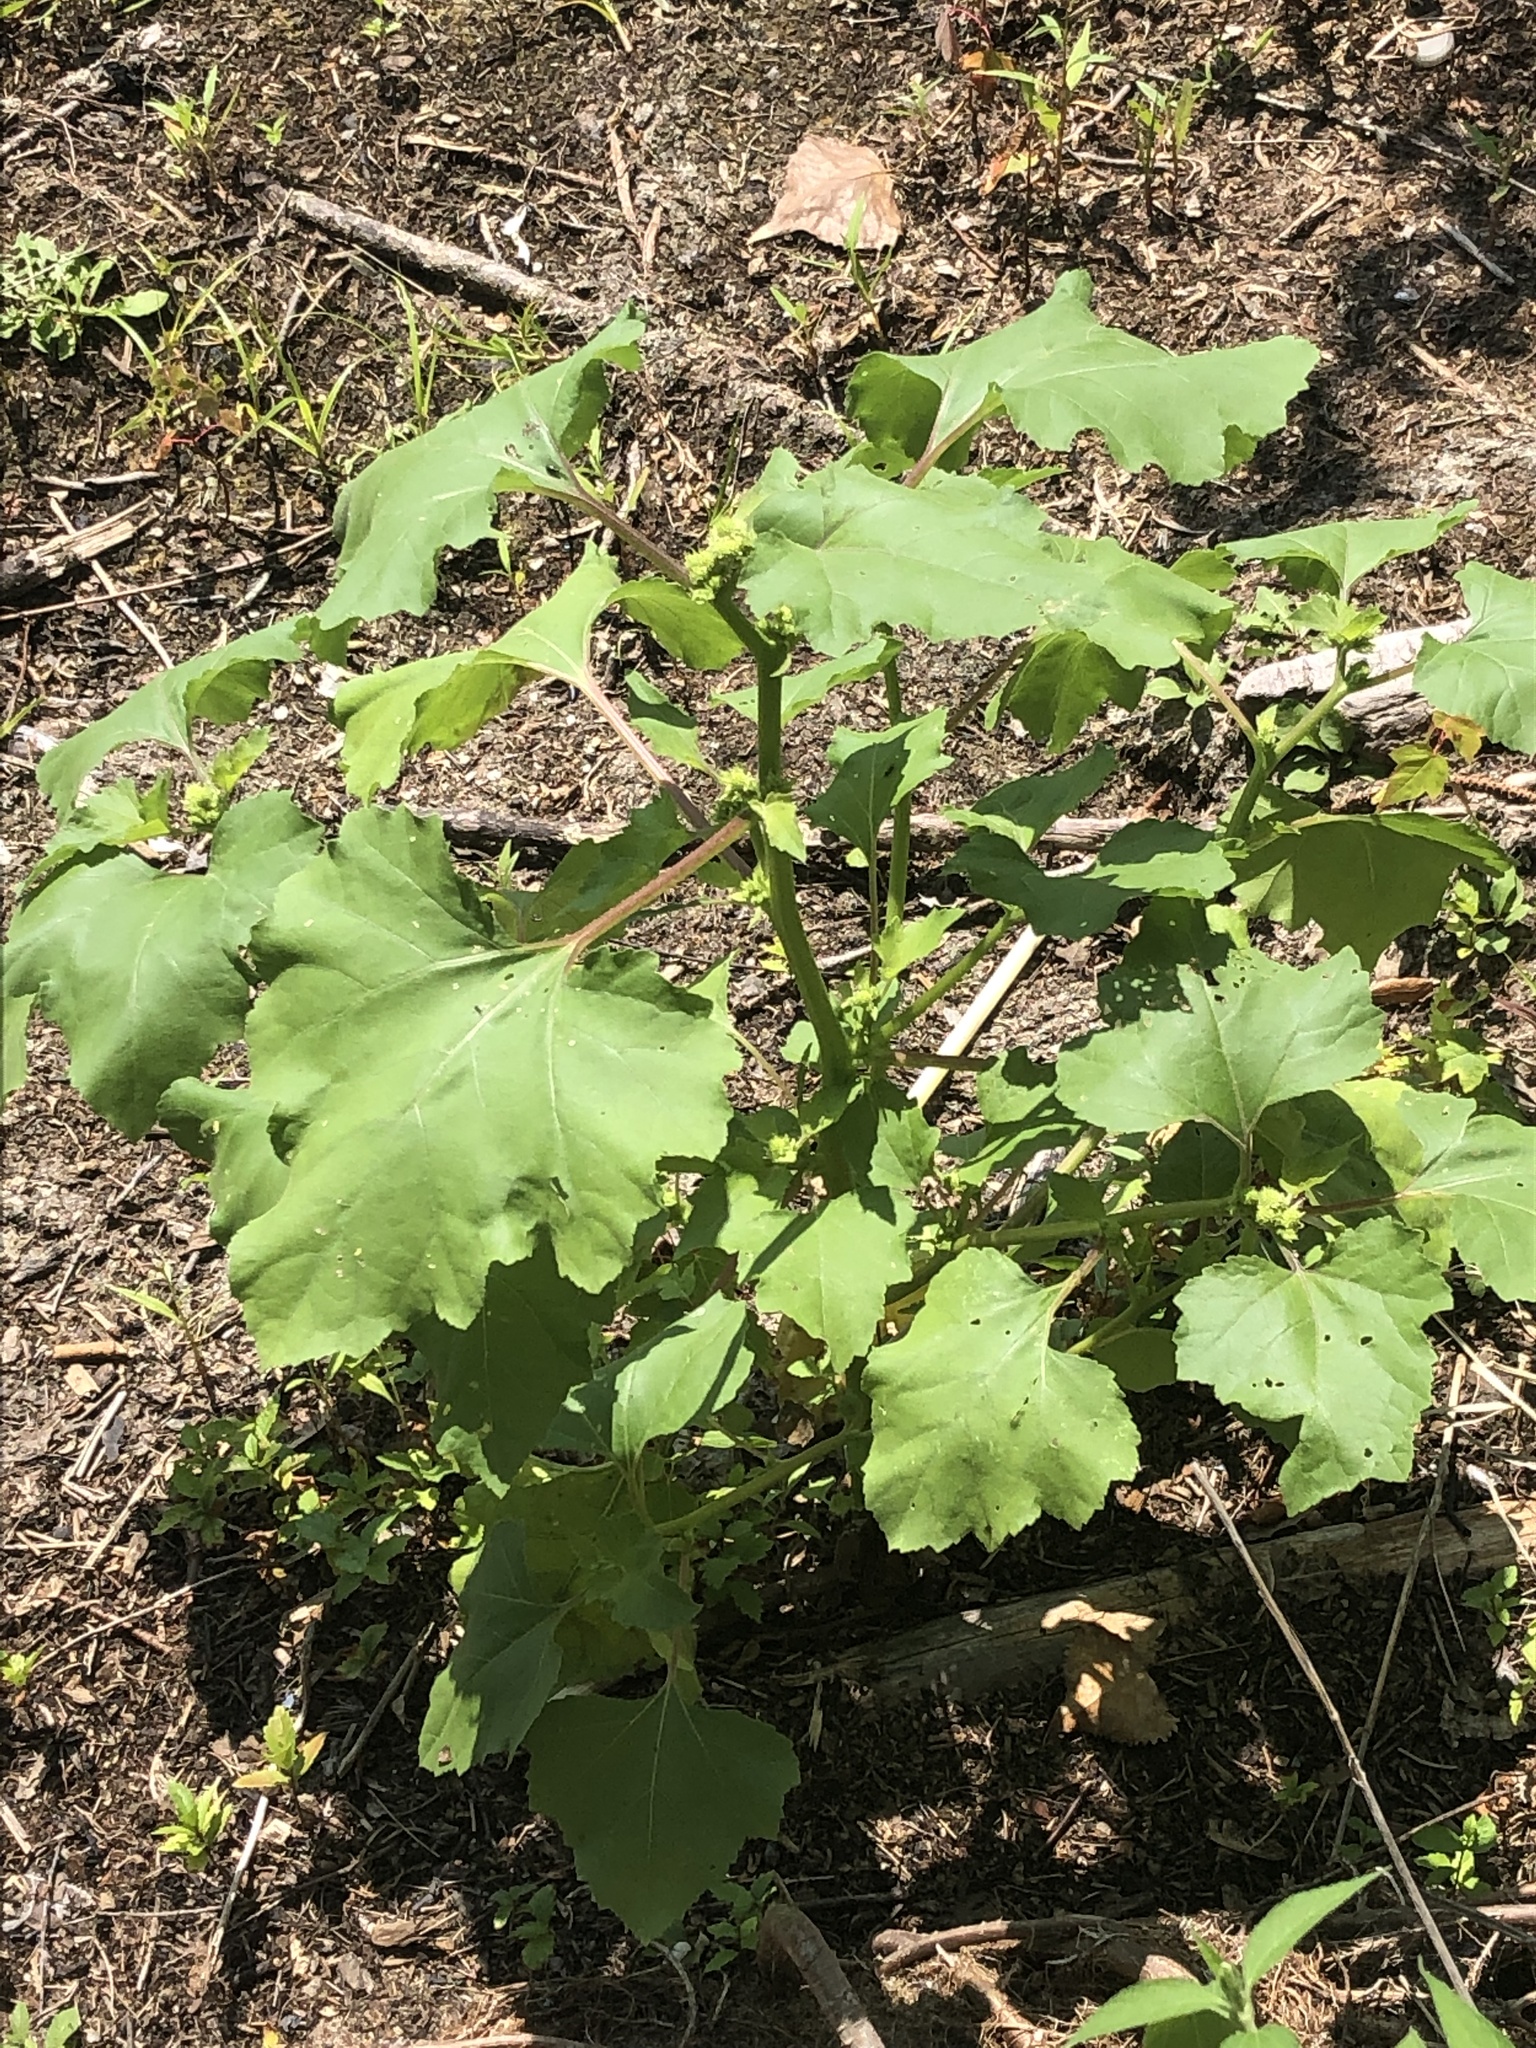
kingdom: Plantae
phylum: Tracheophyta
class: Magnoliopsida
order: Asterales
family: Asteraceae
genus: Xanthium
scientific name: Xanthium strumarium
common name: Rough cocklebur
